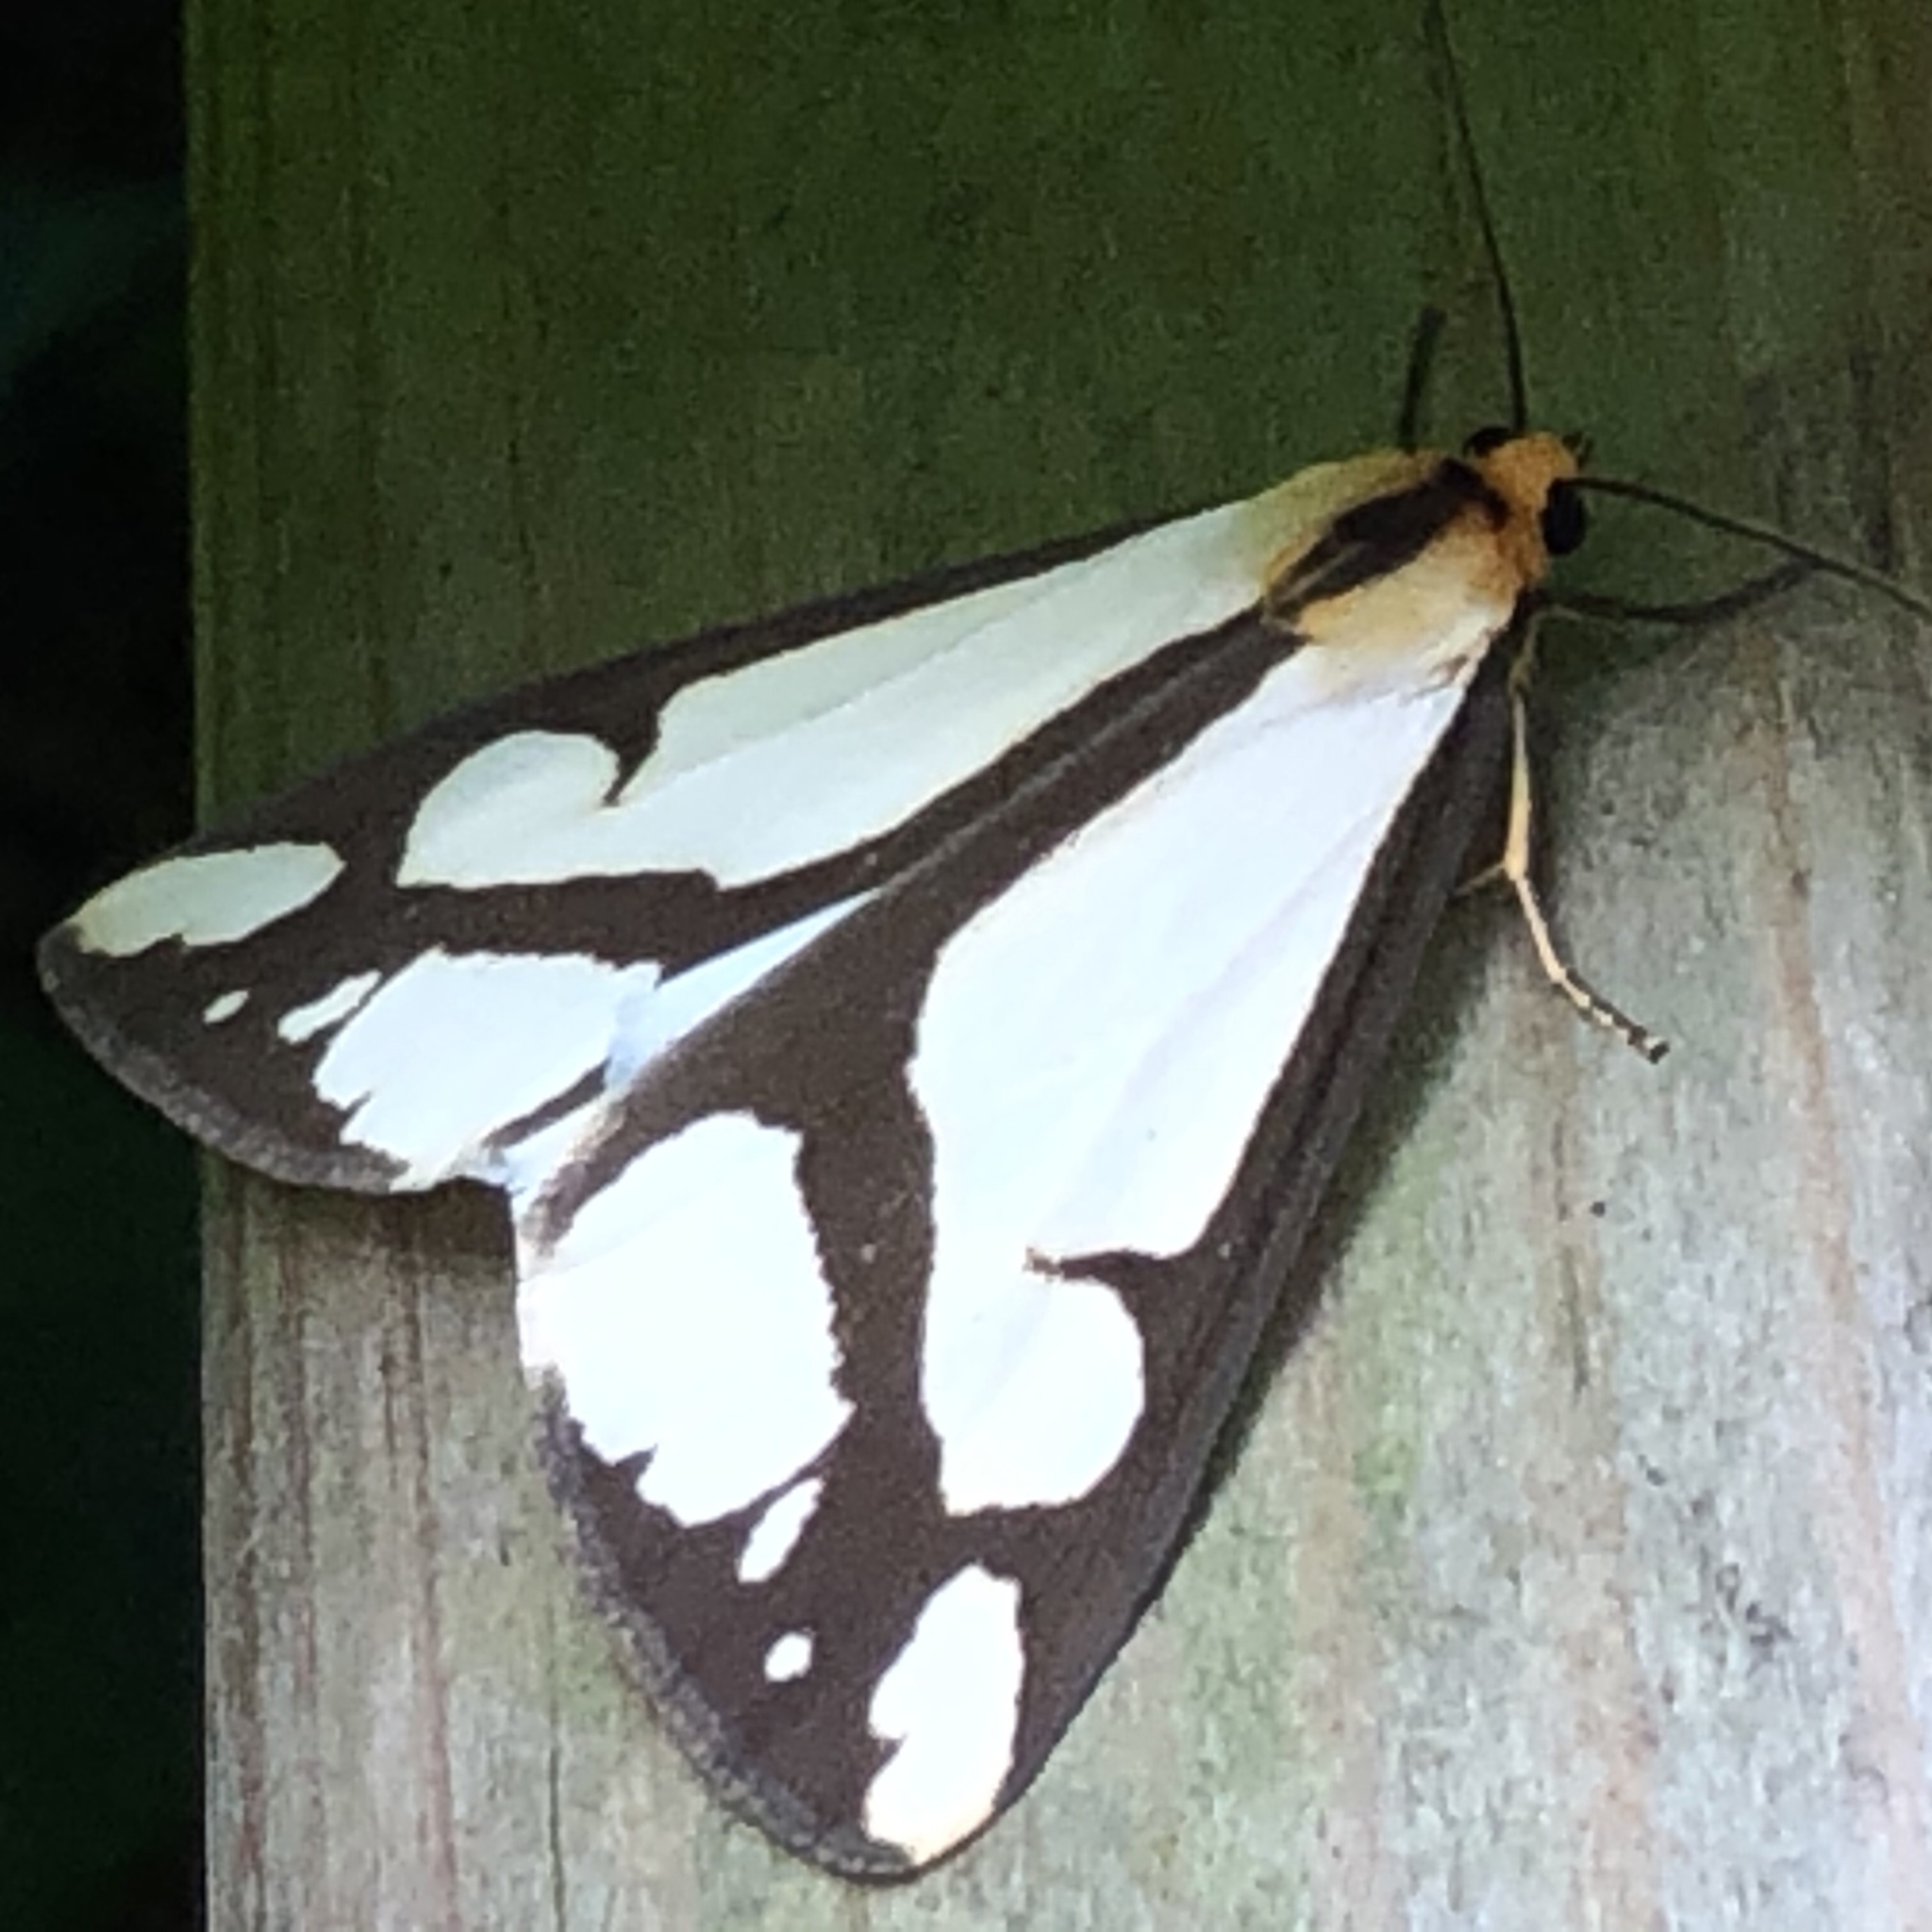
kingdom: Animalia
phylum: Arthropoda
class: Insecta
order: Lepidoptera
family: Erebidae
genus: Haploa
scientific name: Haploa lecontei
